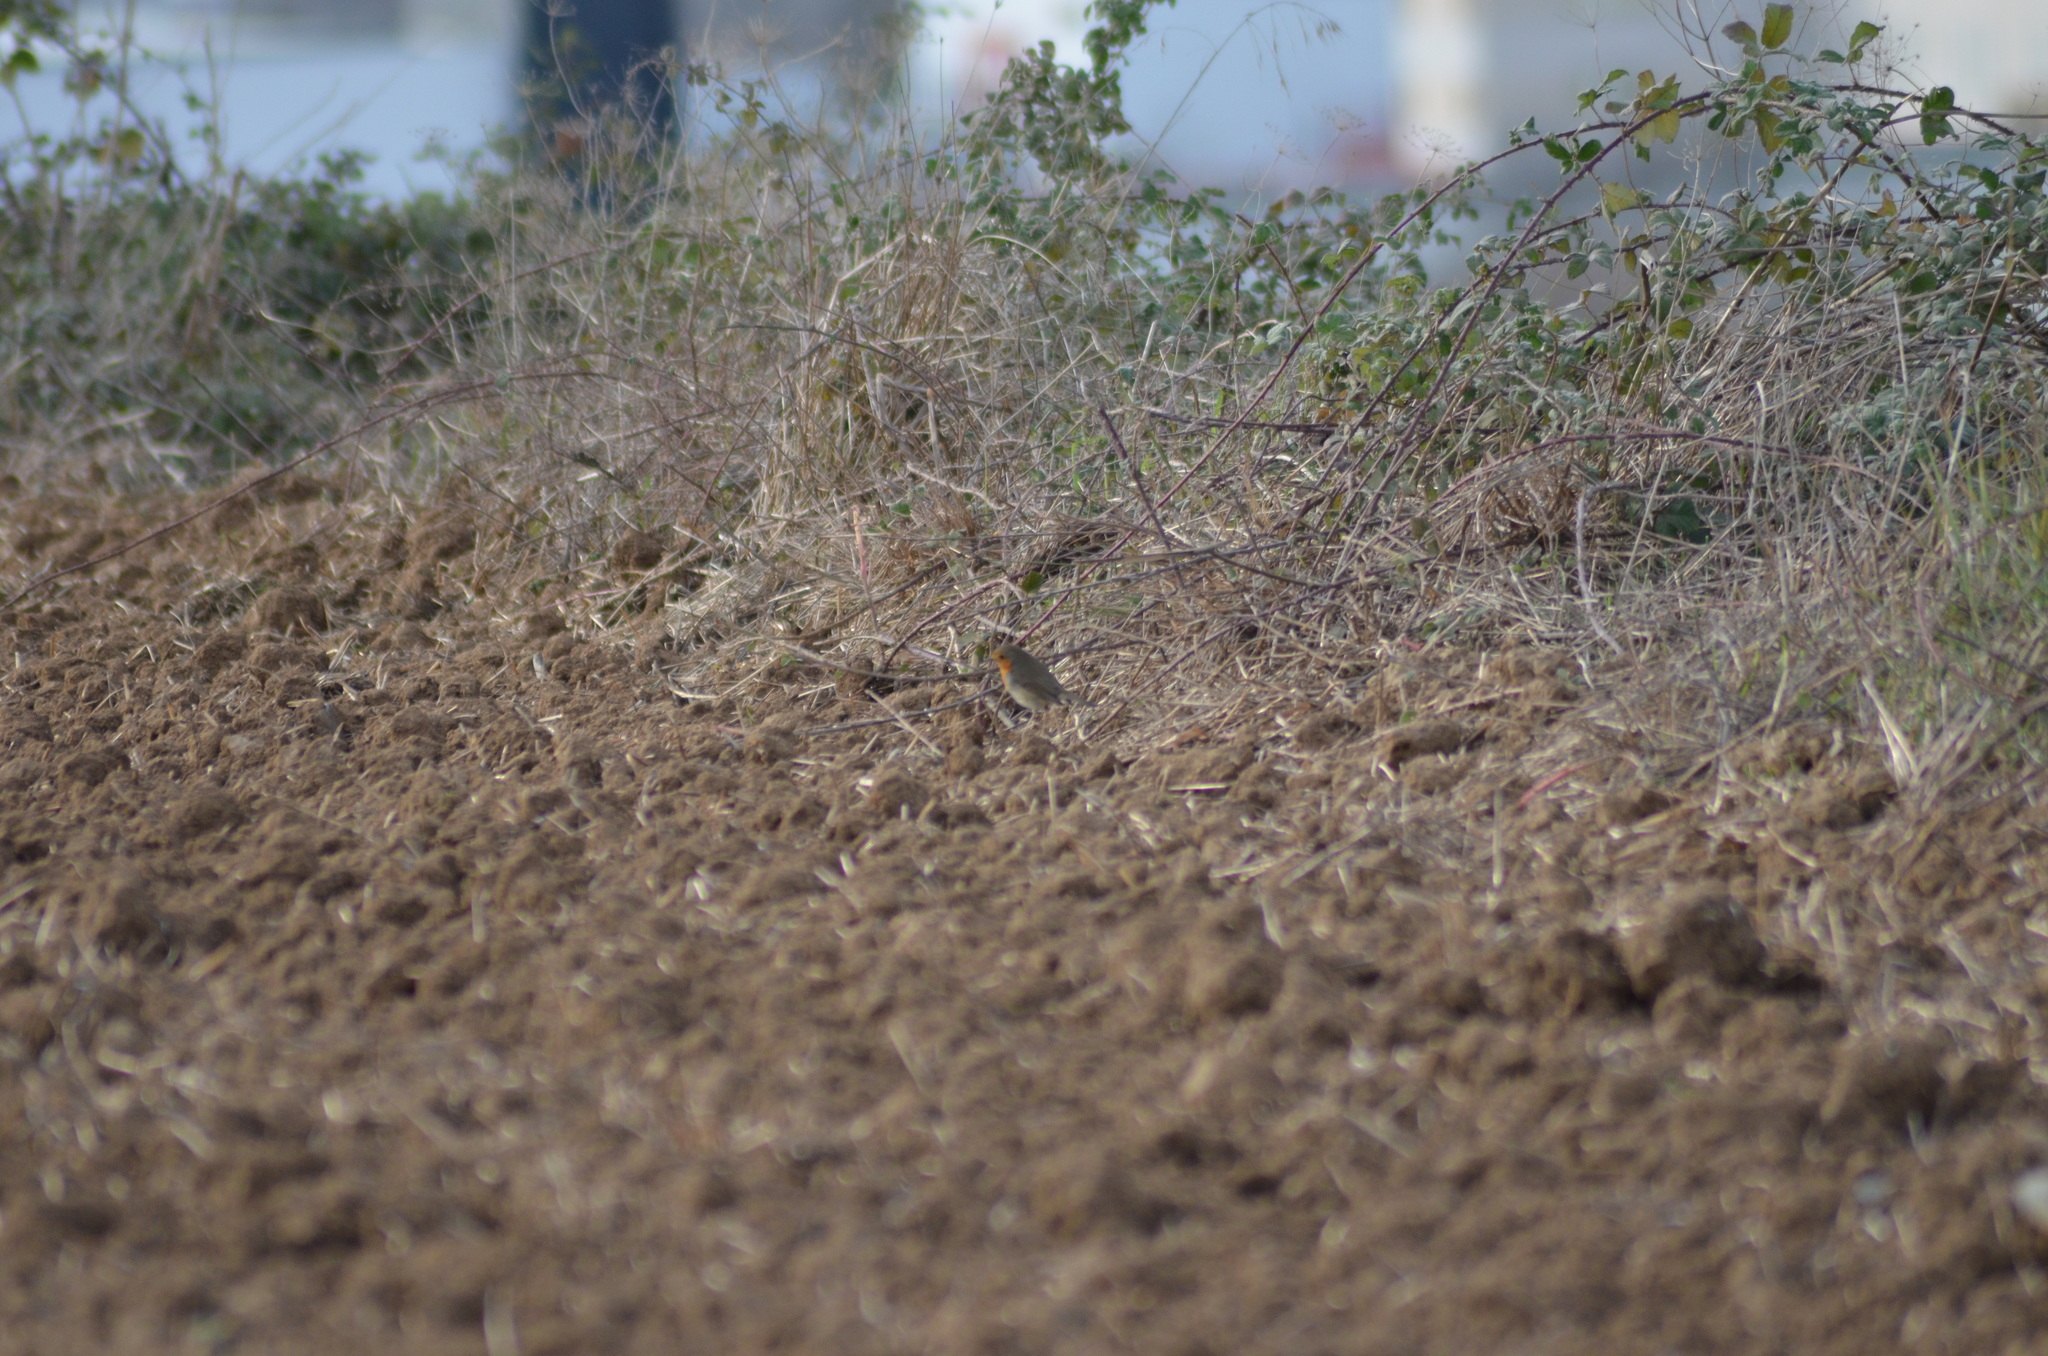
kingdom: Animalia
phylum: Chordata
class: Aves
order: Passeriformes
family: Muscicapidae
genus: Erithacus
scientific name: Erithacus rubecula
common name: European robin
